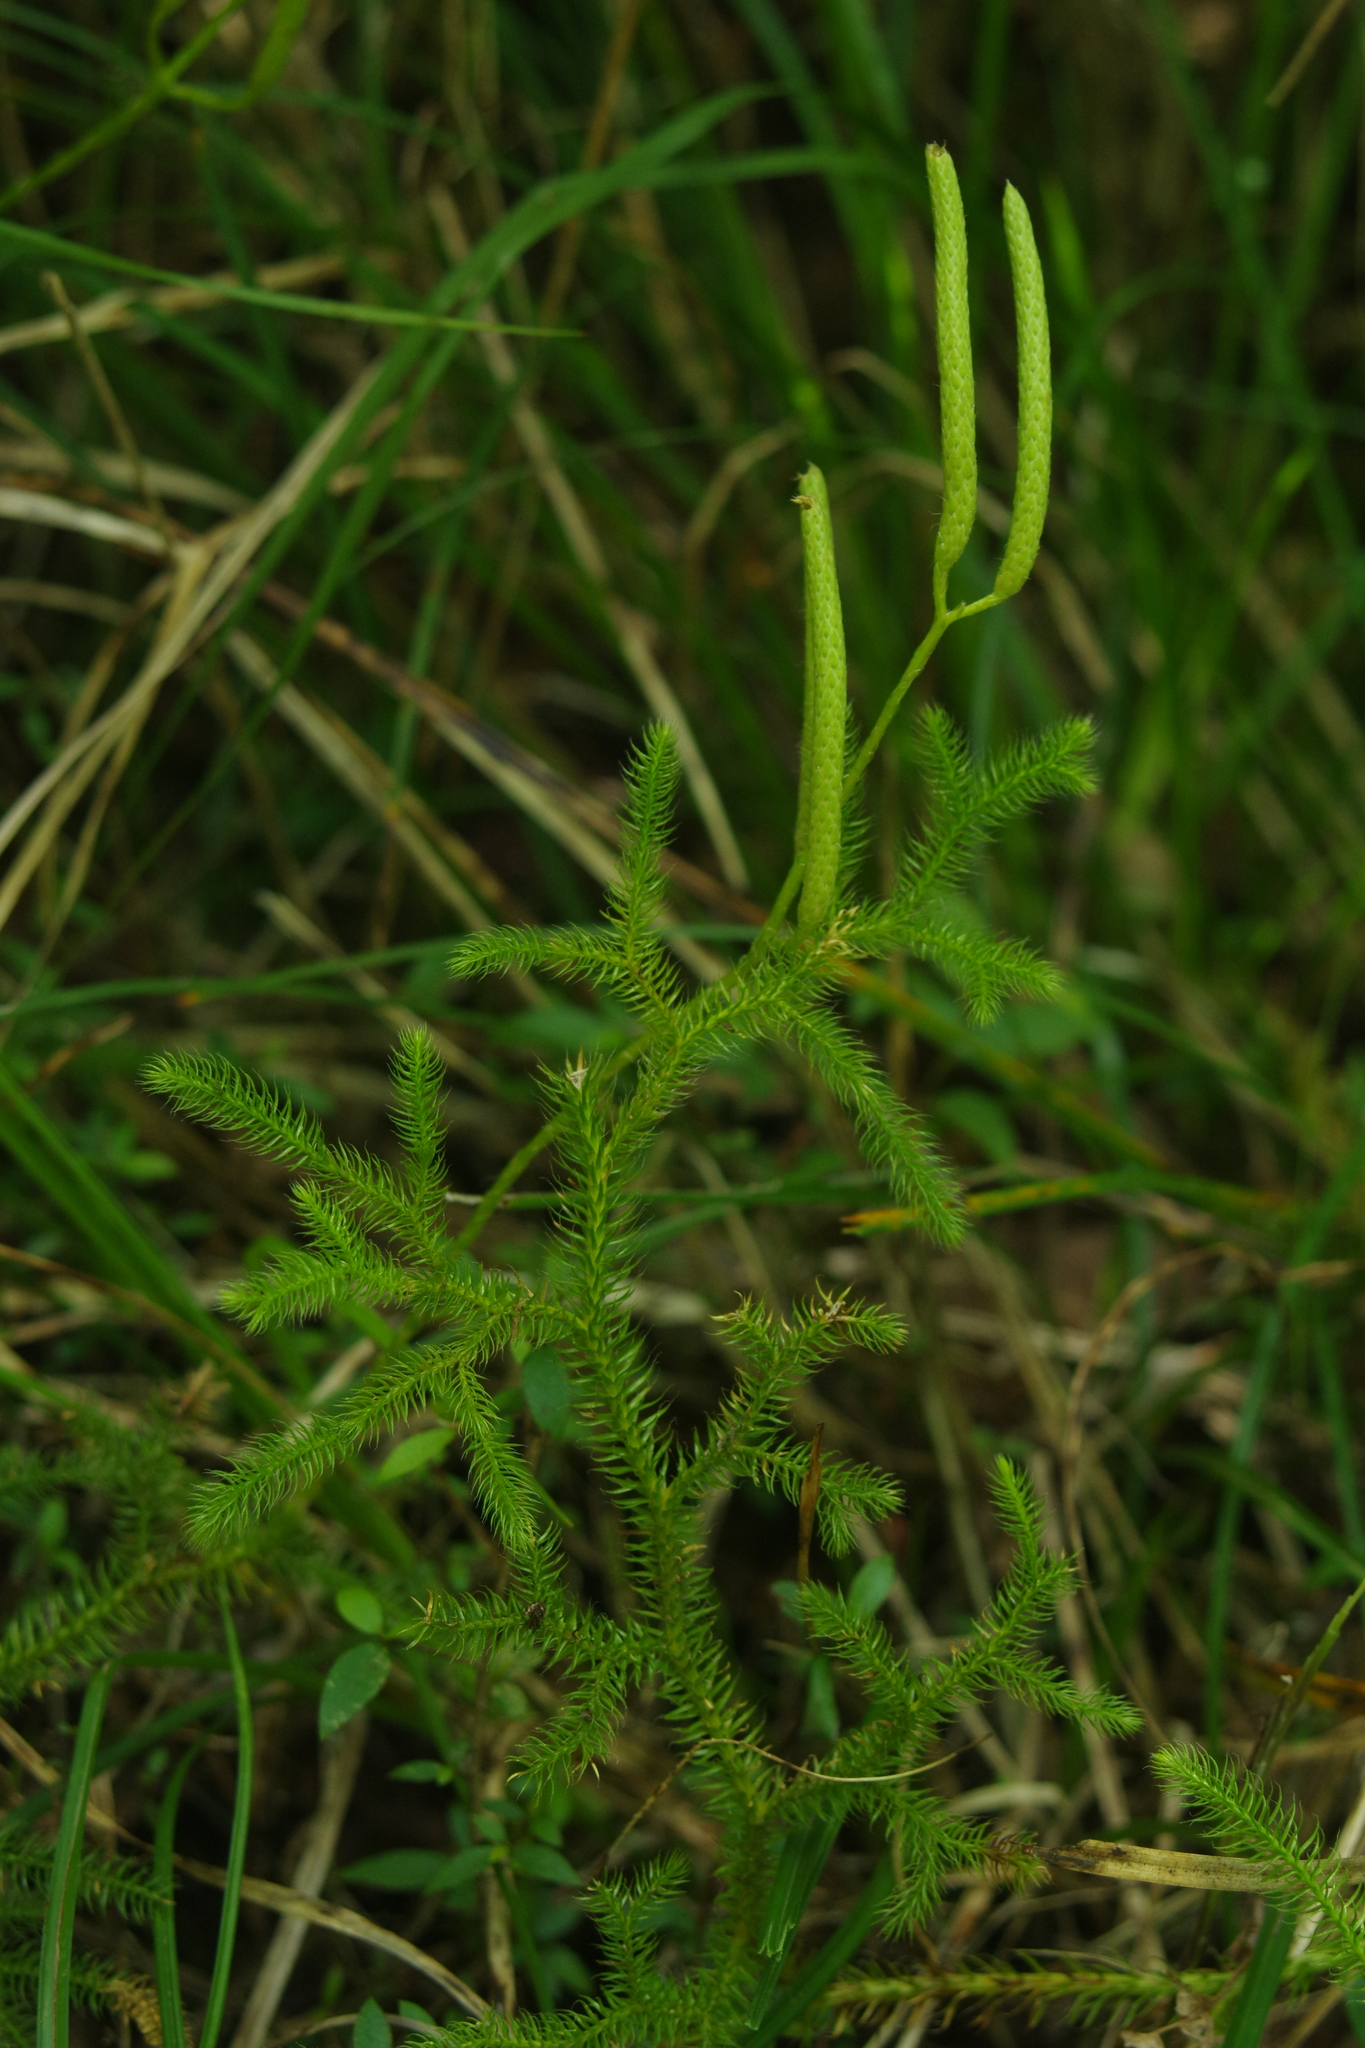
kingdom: Plantae
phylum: Tracheophyta
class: Lycopodiopsida
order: Lycopodiales
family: Lycopodiaceae
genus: Lycopodium
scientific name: Lycopodium japonicum
